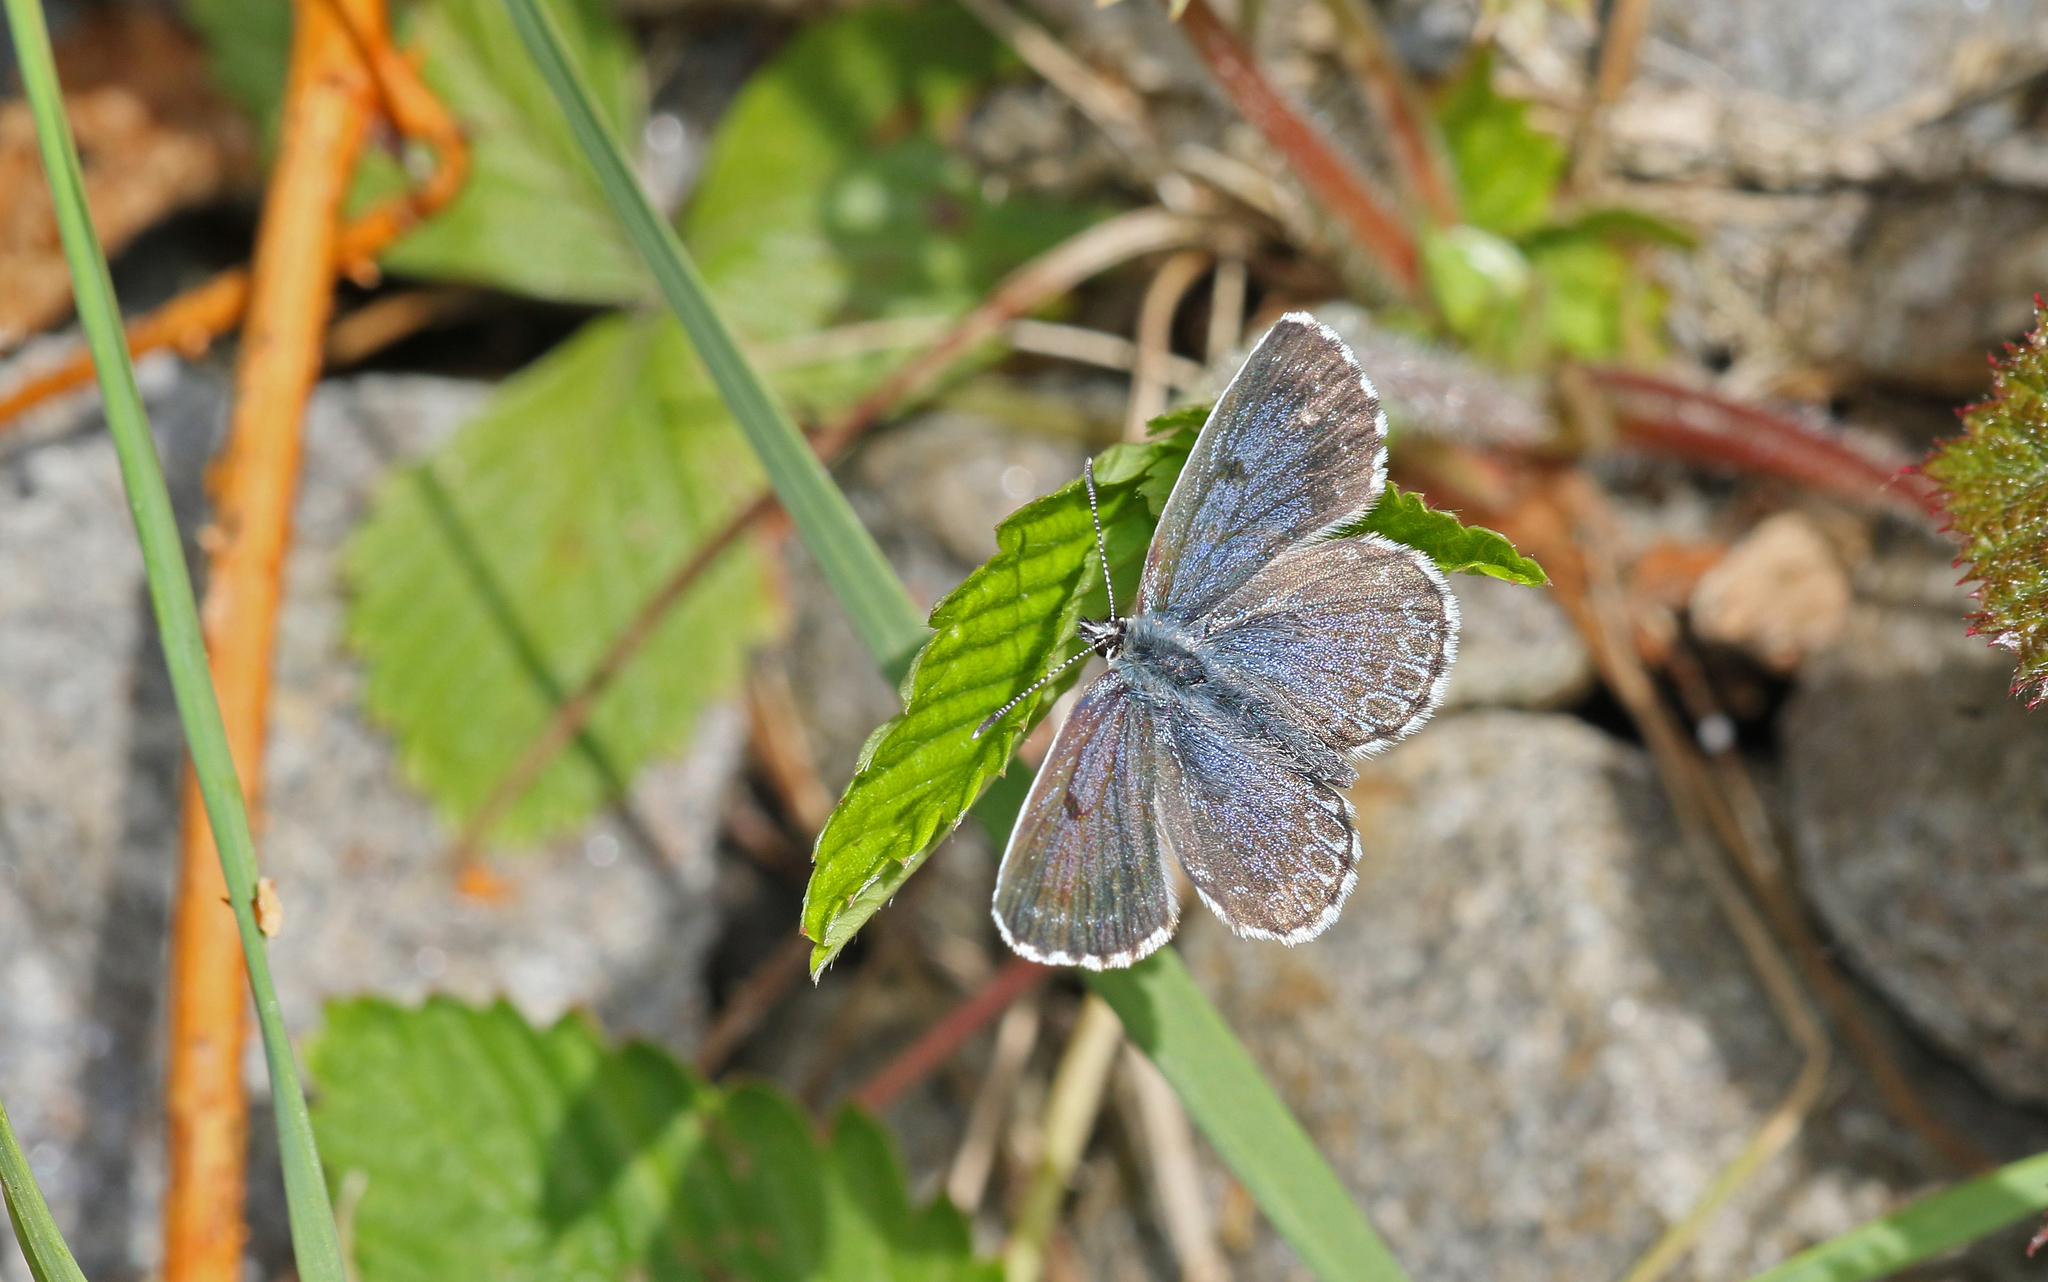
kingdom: Animalia
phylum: Arthropoda
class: Insecta
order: Lepidoptera
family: Lycaenidae
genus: Scolitantides
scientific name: Scolitantides orion
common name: Chequered blue
